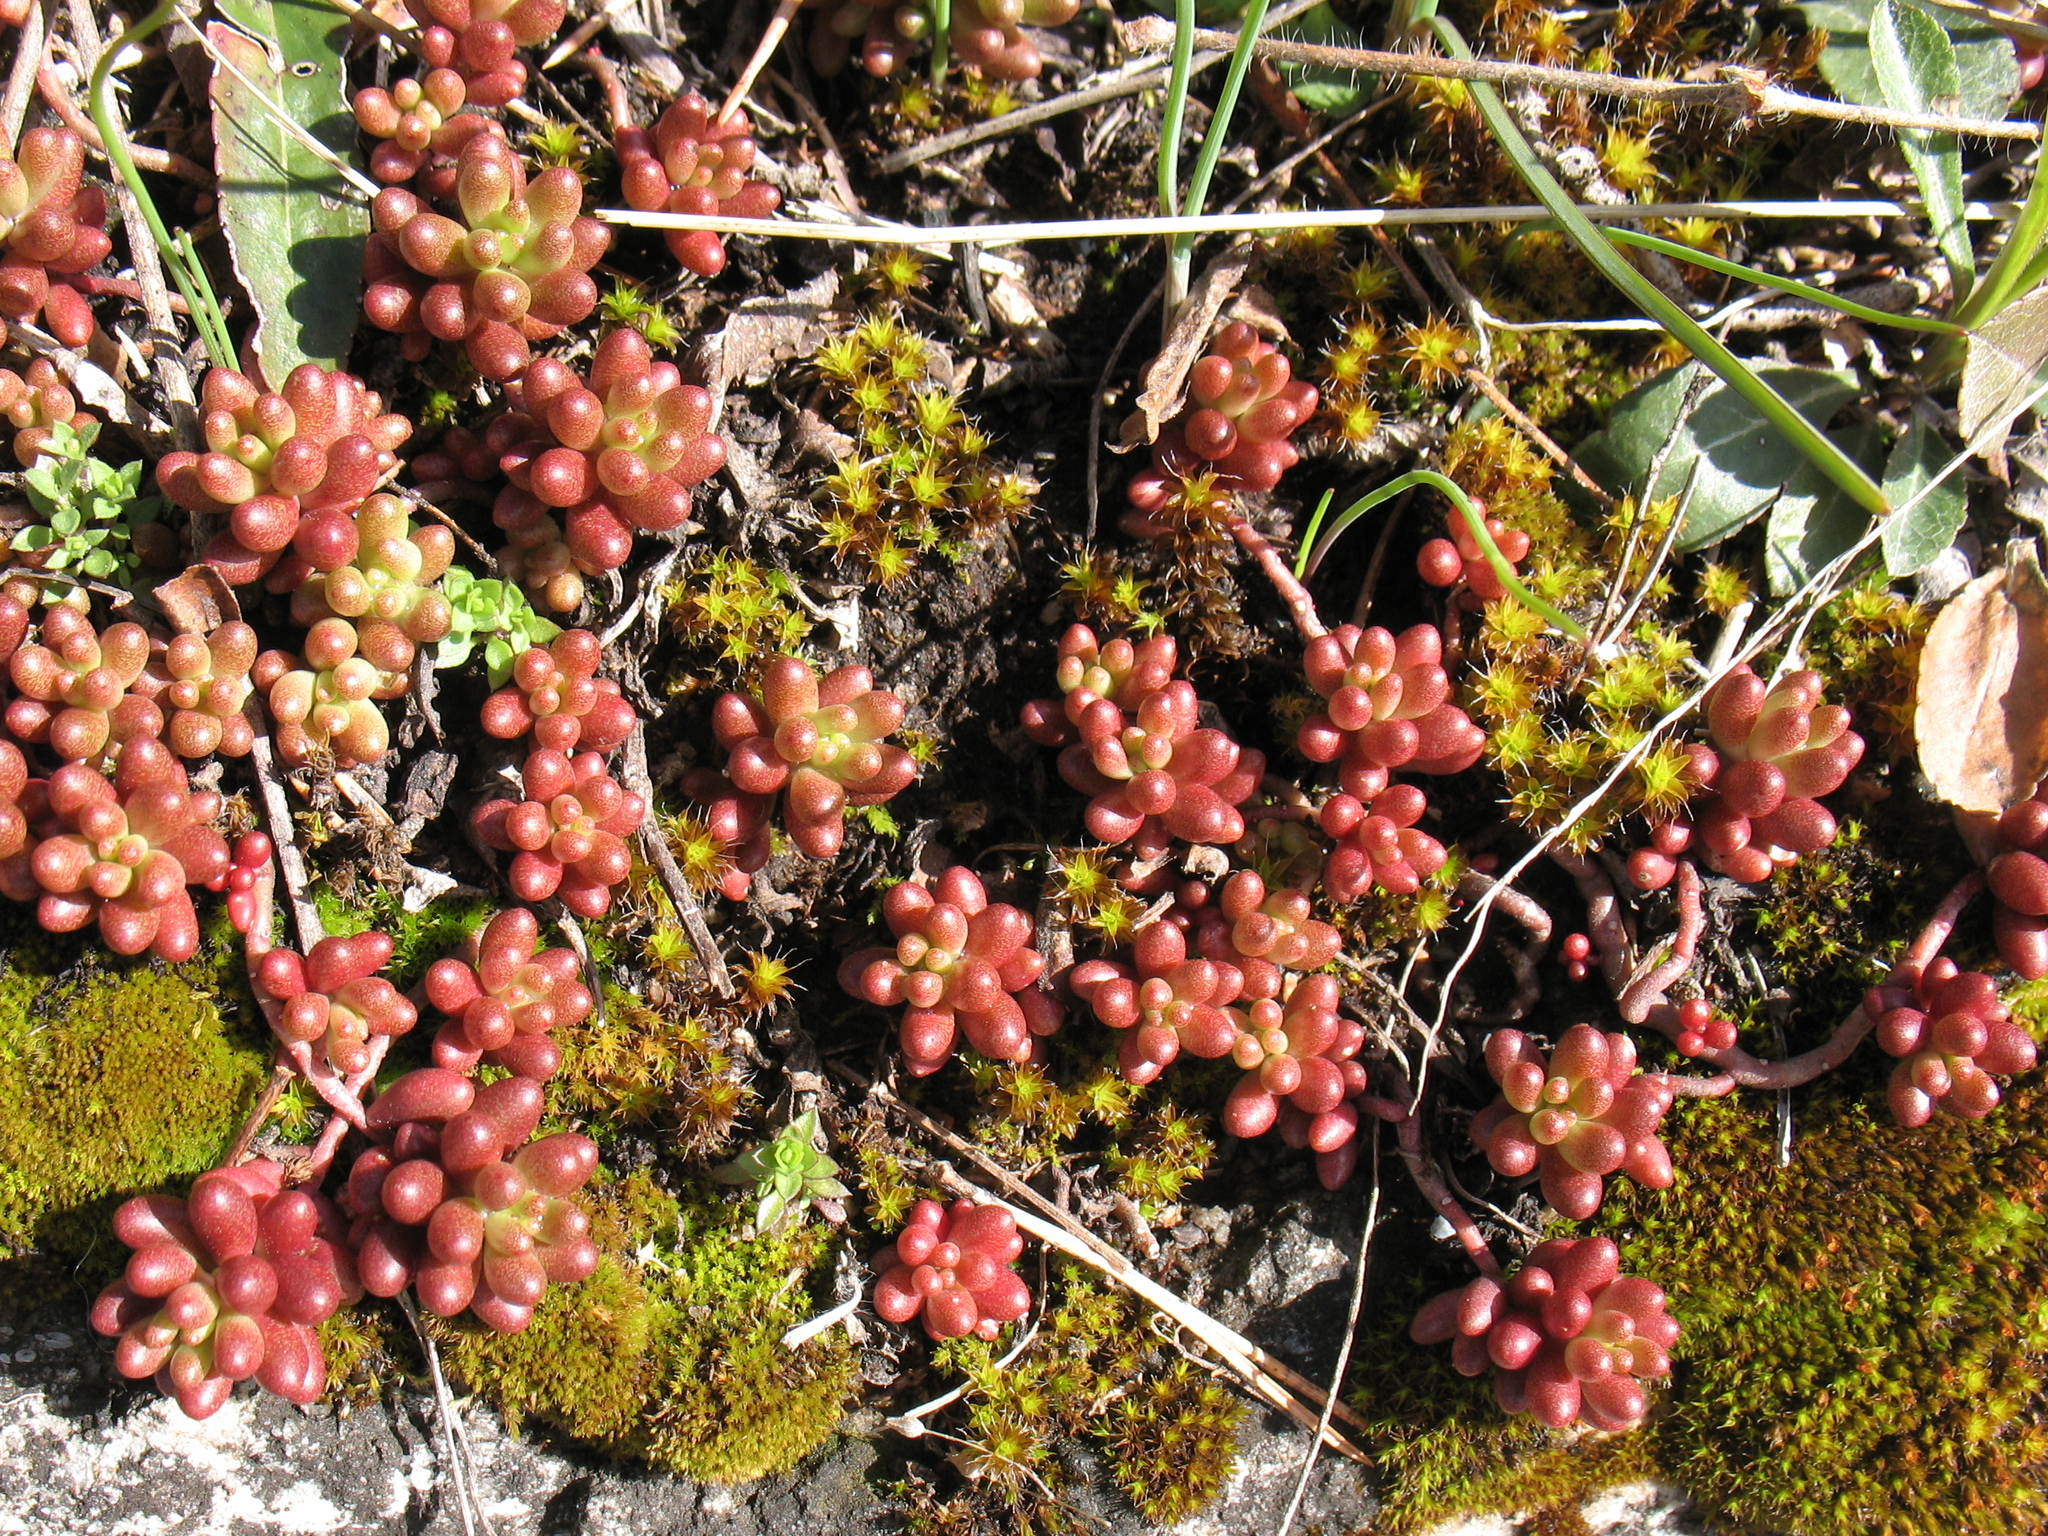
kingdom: Plantae
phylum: Tracheophyta
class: Magnoliopsida
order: Saxifragales
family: Crassulaceae
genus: Sedum
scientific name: Sedum album
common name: White stonecrop
